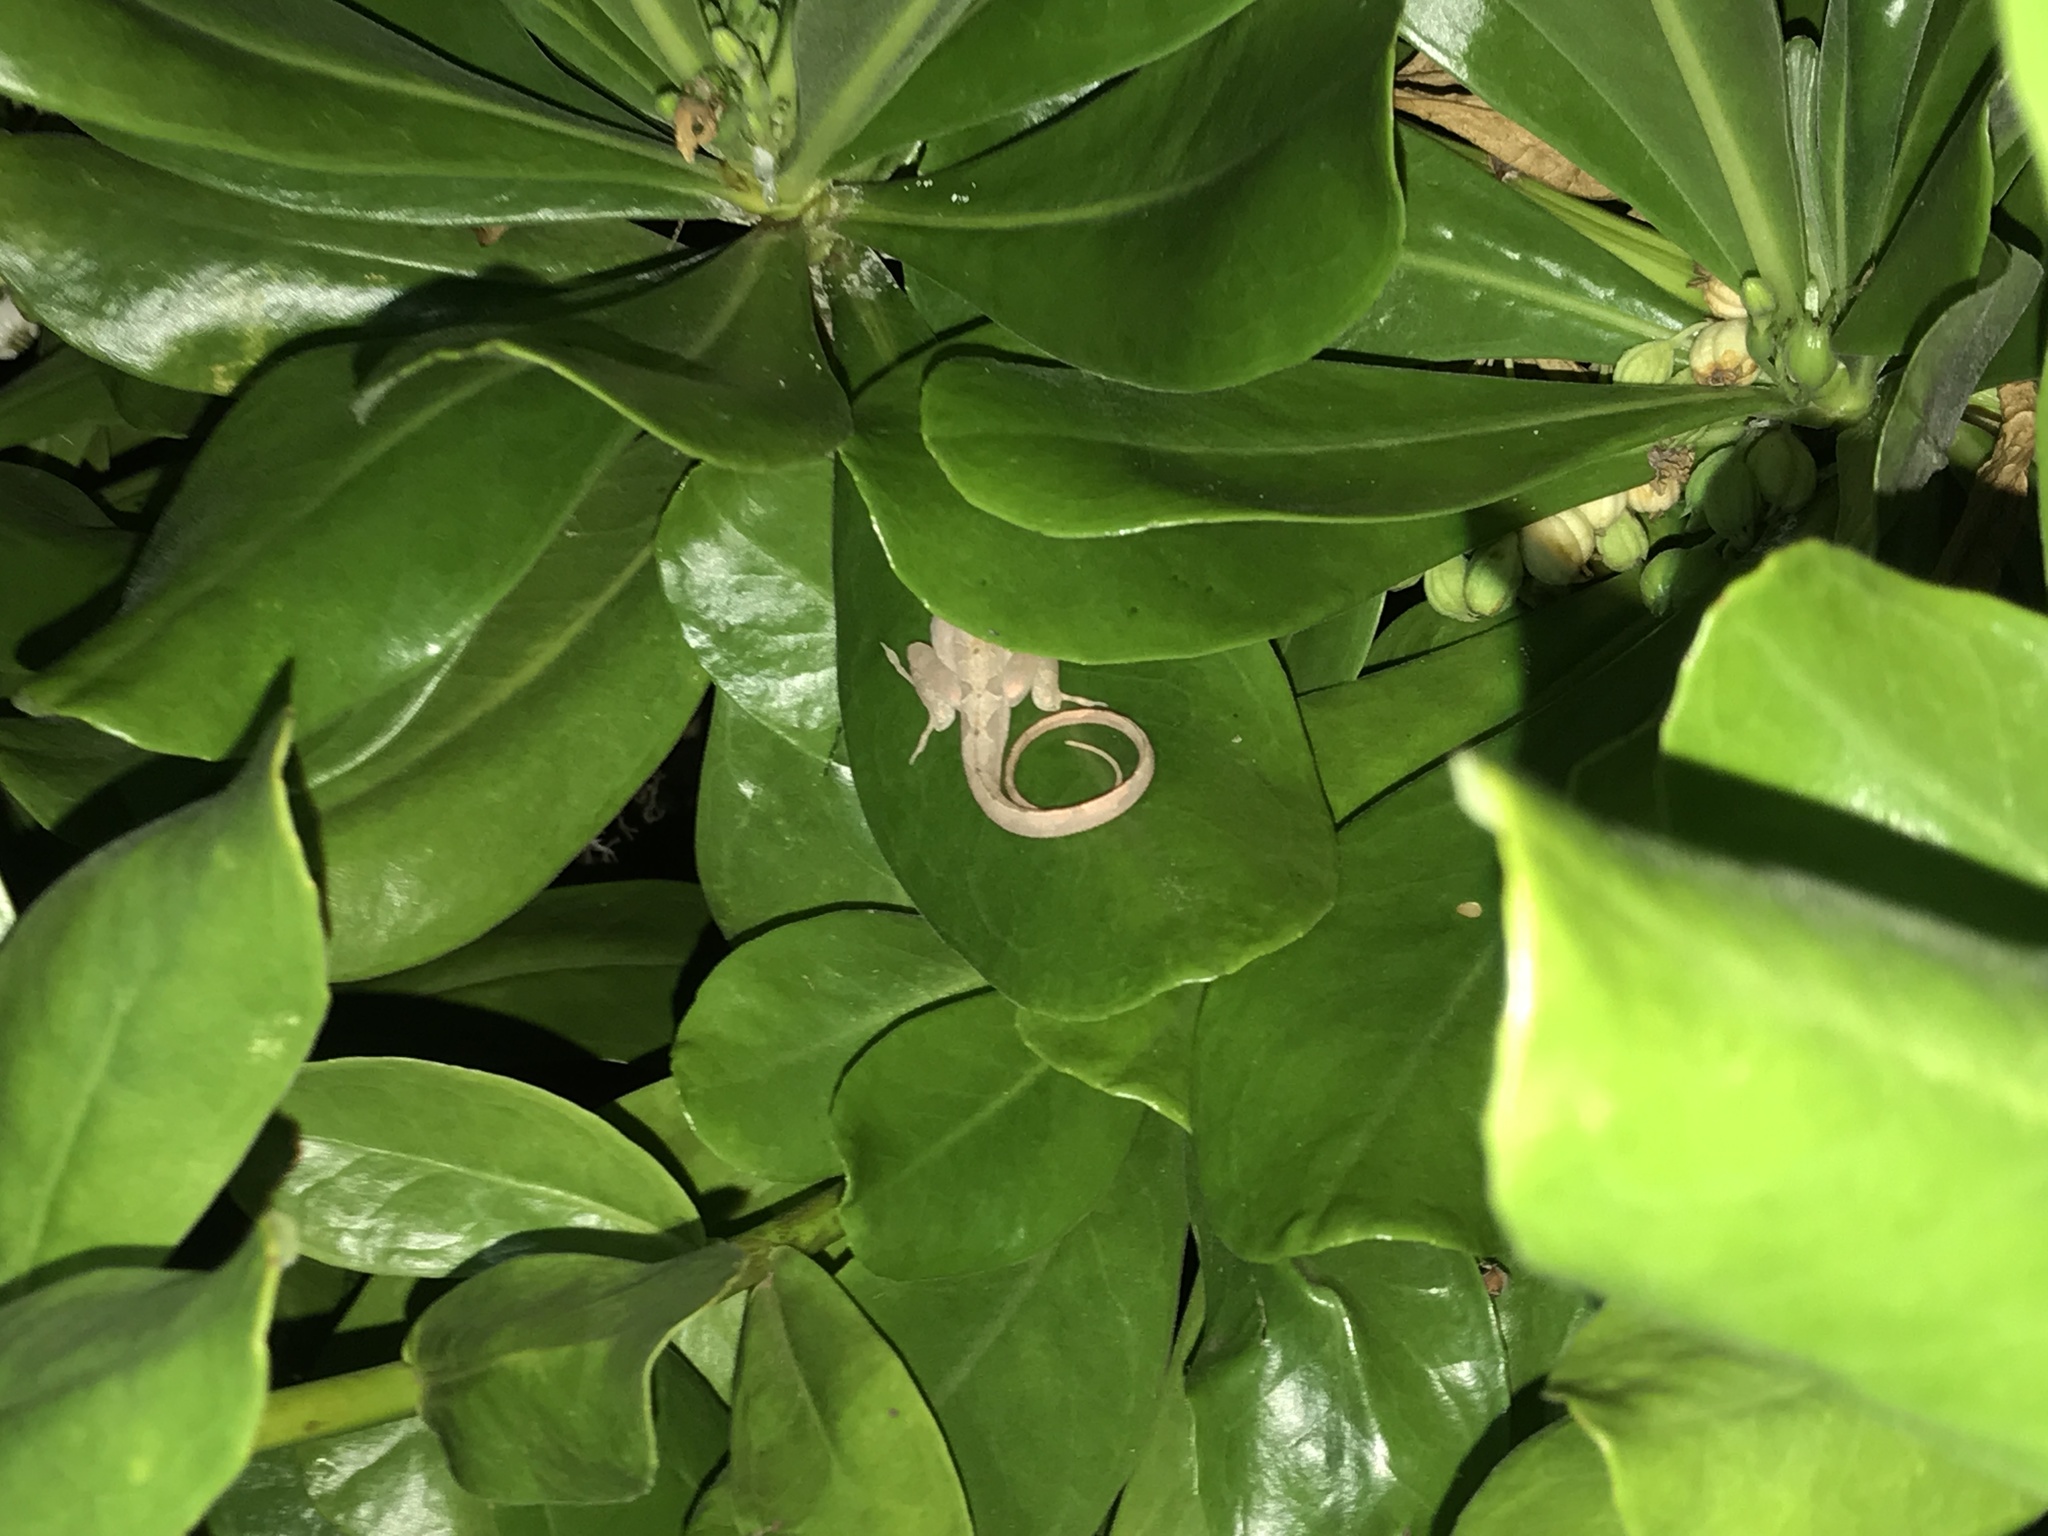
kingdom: Animalia
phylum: Chordata
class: Squamata
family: Dactyloidae
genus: Anolis
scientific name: Anolis sagrei
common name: Brown anole
